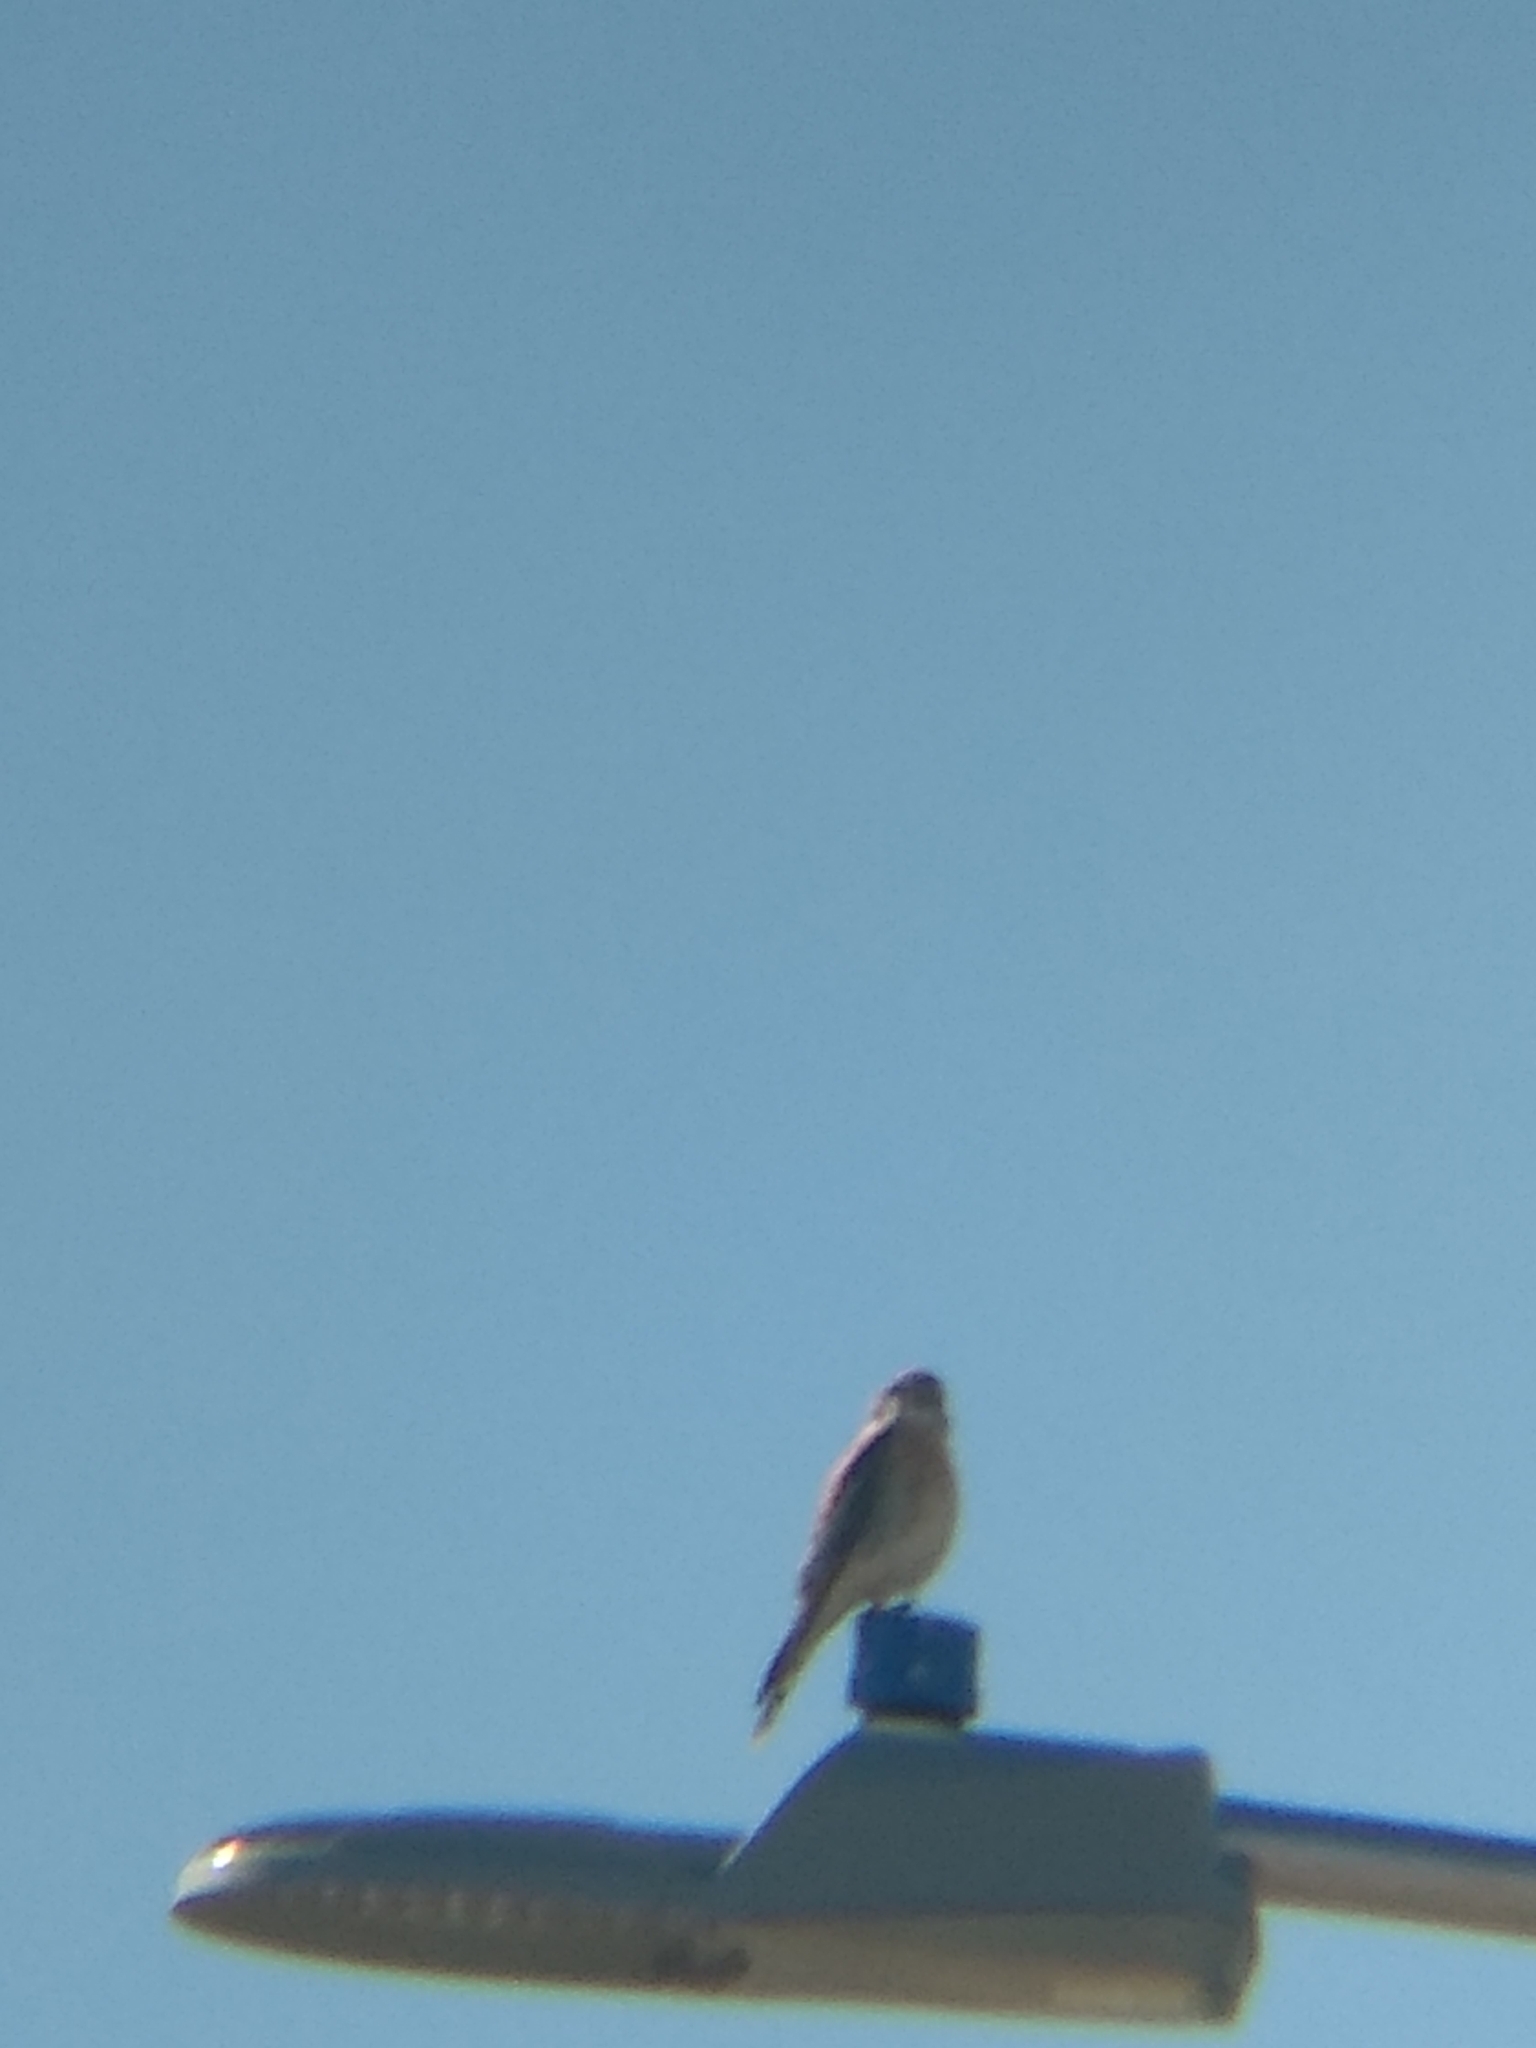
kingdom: Animalia
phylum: Chordata
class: Aves
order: Falconiformes
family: Falconidae
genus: Falco
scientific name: Falco sparverius
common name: American kestrel
